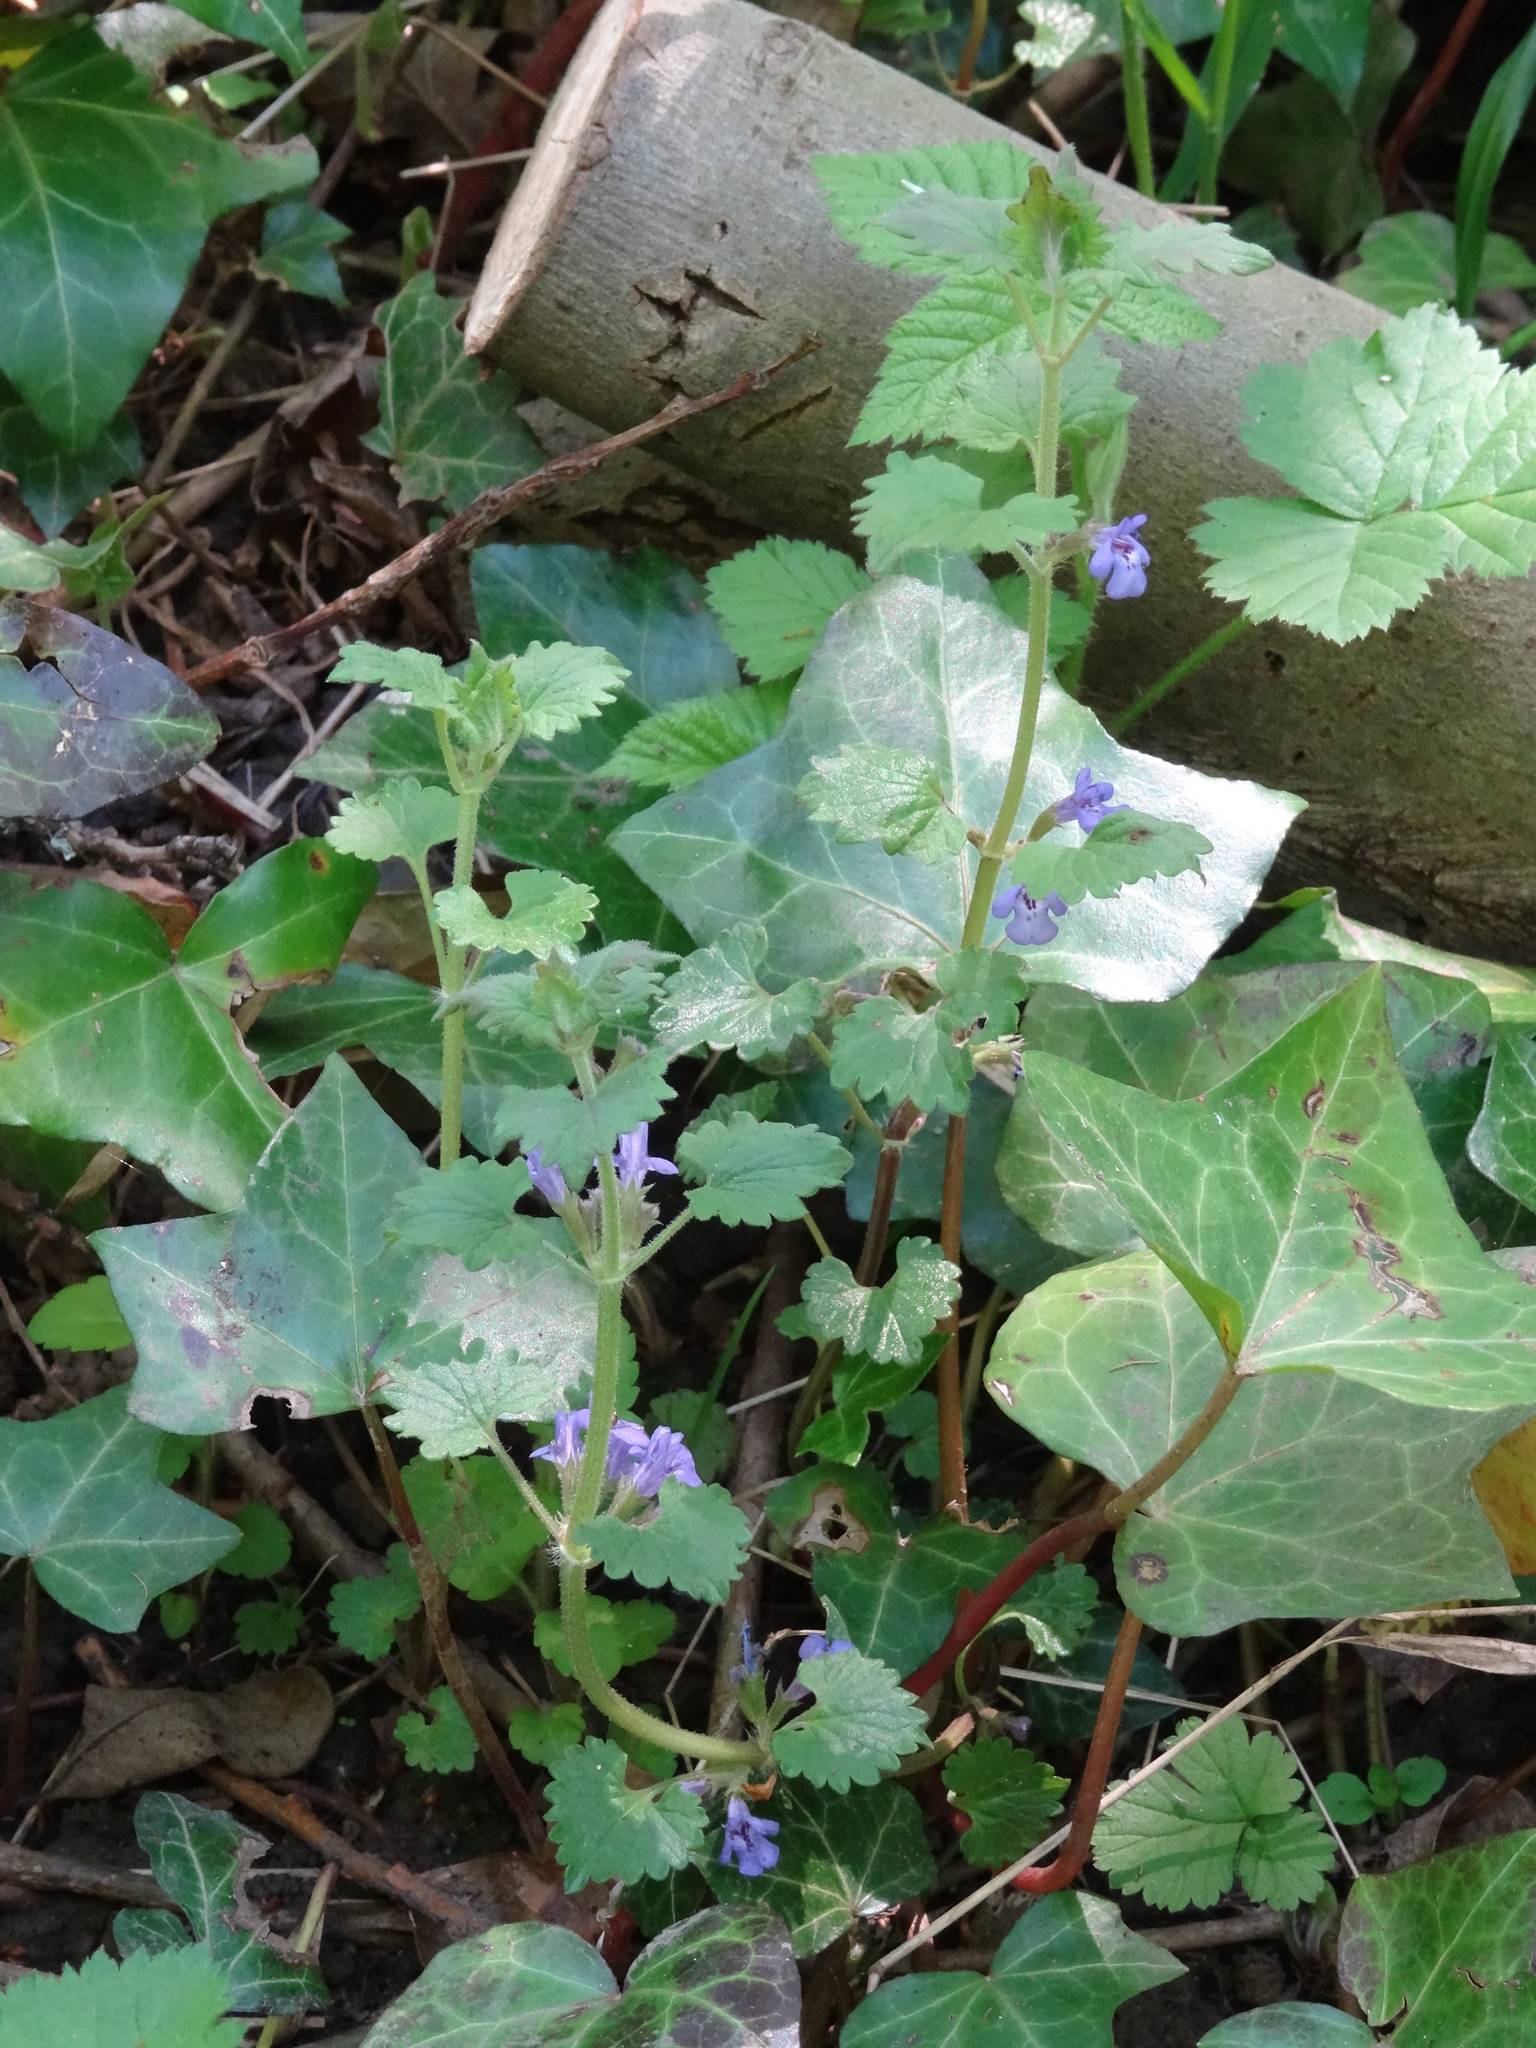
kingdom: Plantae
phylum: Tracheophyta
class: Magnoliopsida
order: Lamiales
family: Lamiaceae
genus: Glechoma
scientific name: Glechoma hederacea
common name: Ground ivy
